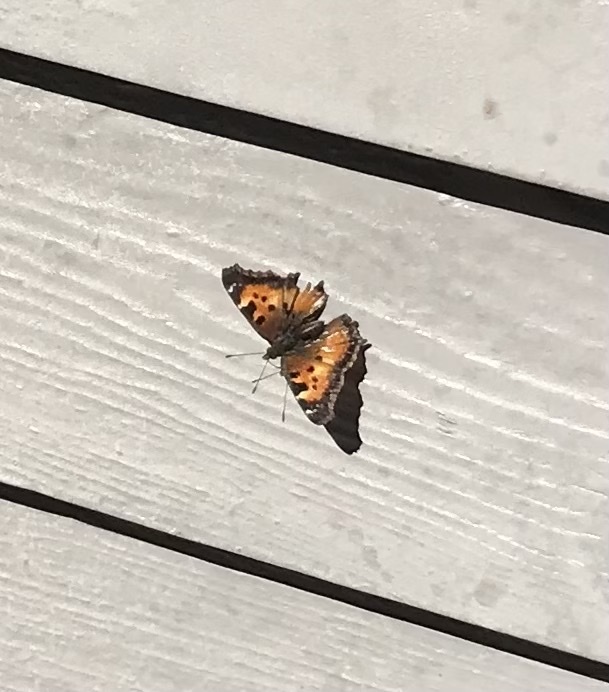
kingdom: Animalia
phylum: Arthropoda
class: Insecta
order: Lepidoptera
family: Nymphalidae
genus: Nymphalis
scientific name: Nymphalis californica
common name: California tortoiseshell
